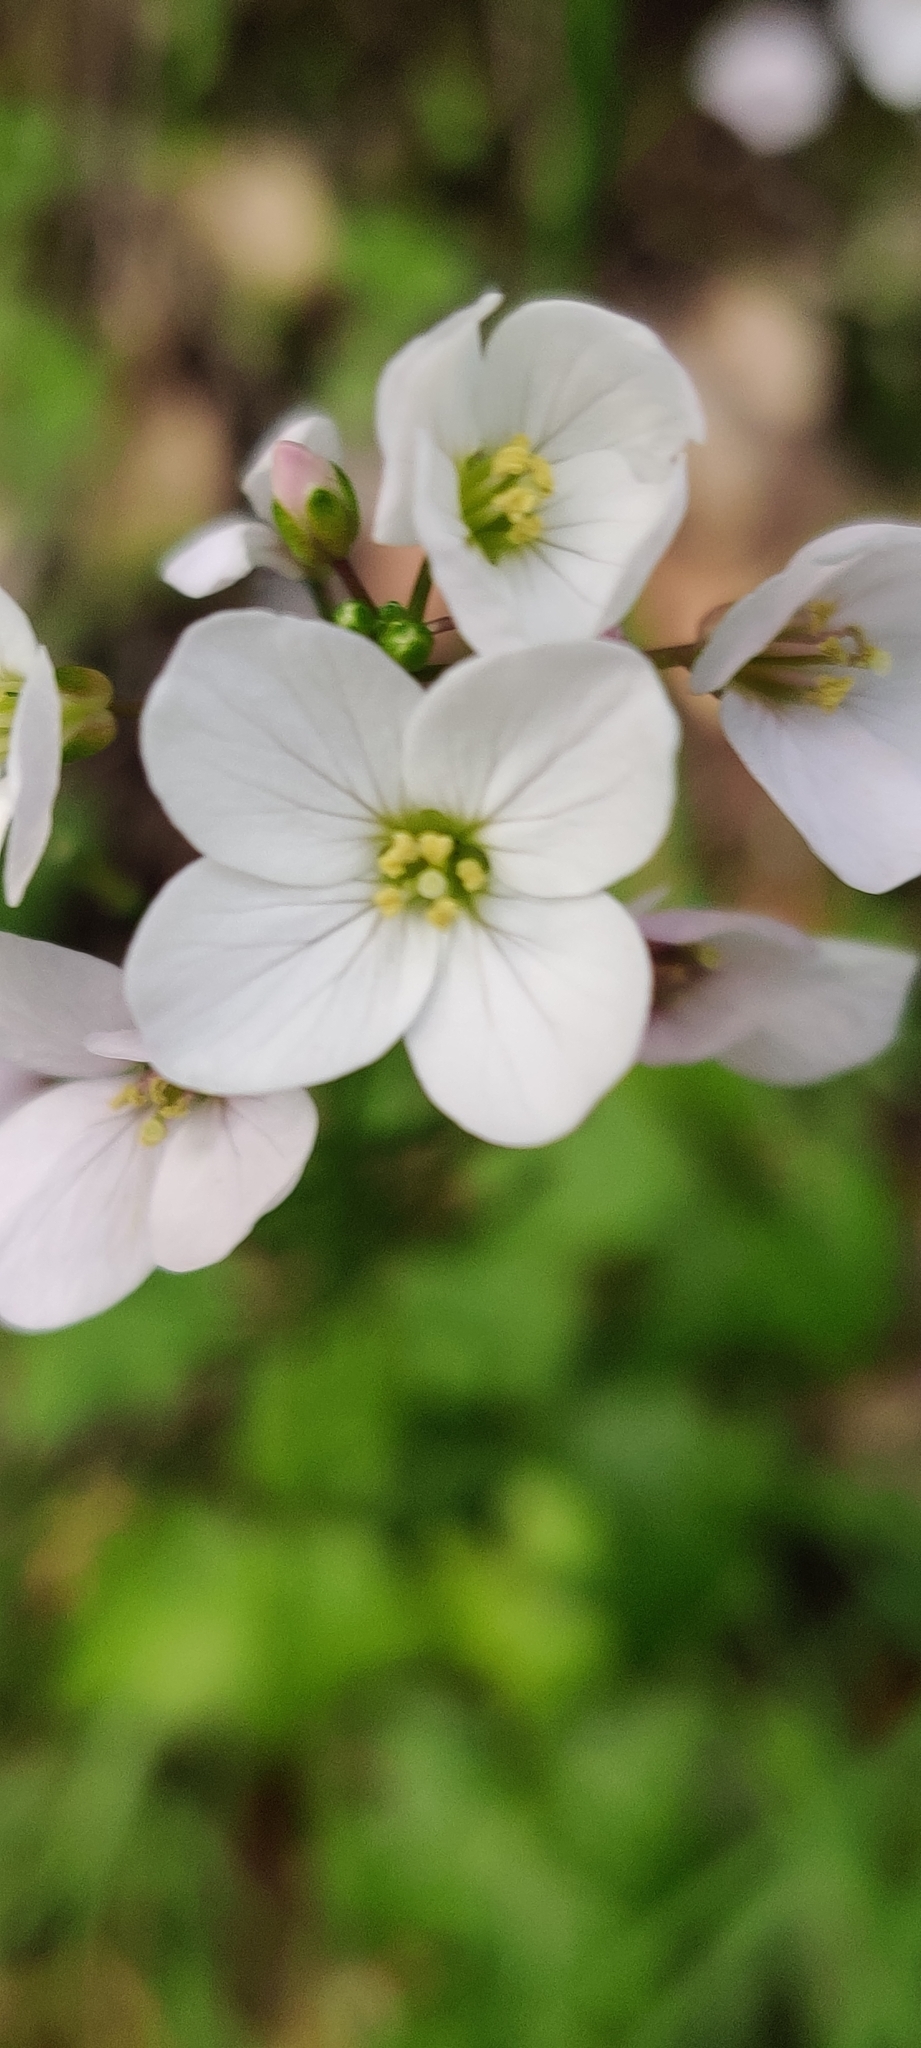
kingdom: Plantae
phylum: Tracheophyta
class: Magnoliopsida
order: Brassicales
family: Brassicaceae
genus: Cardamine
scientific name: Cardamine californica
